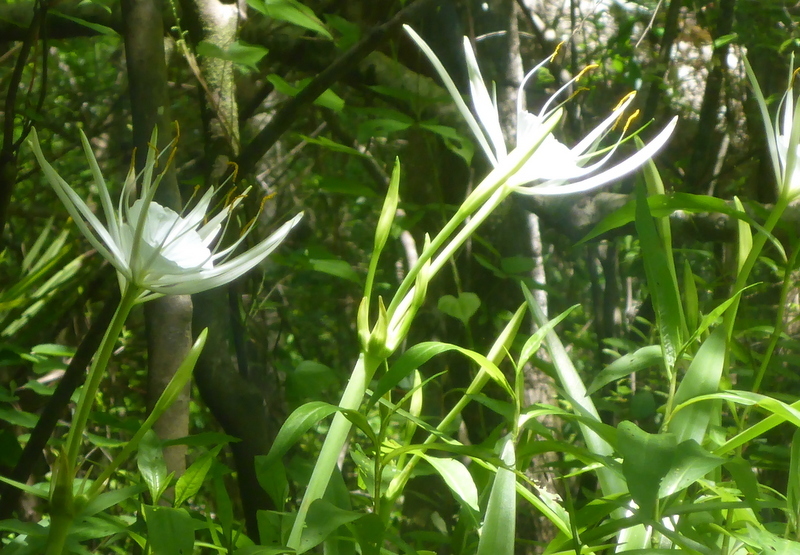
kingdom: Plantae
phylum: Tracheophyta
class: Liliopsida
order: Asparagales
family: Amaryllidaceae
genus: Hymenocallis
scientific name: Hymenocallis franklinensis
